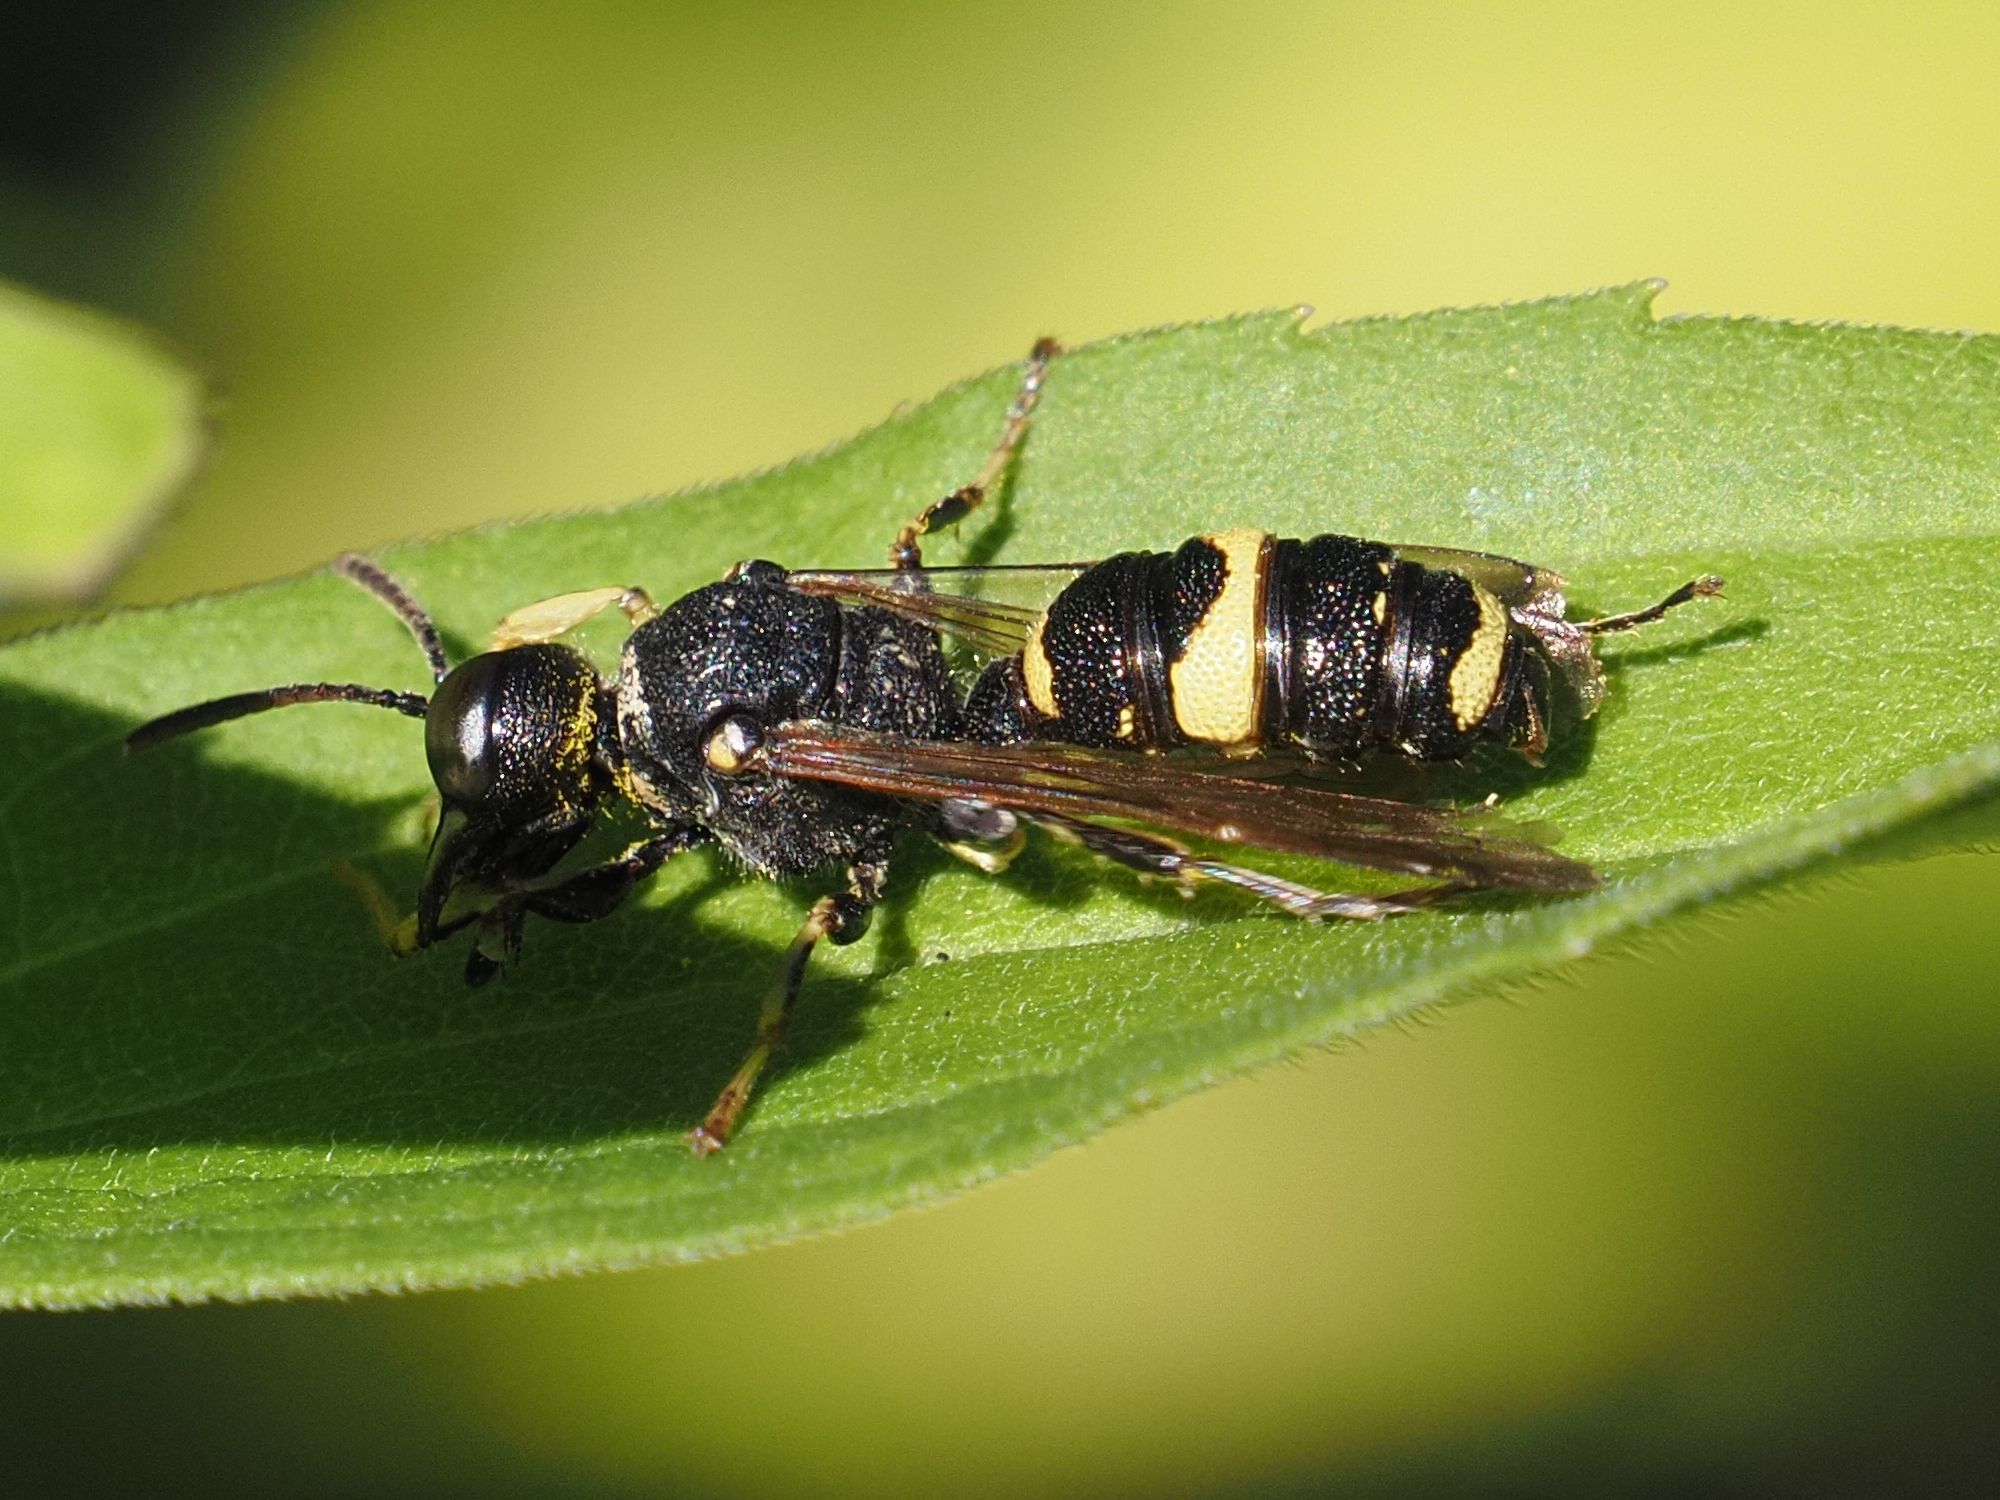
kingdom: Animalia
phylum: Arthropoda
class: Insecta
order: Hymenoptera
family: Crabronidae
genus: Cerceris
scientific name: Cerceris hortivaga
